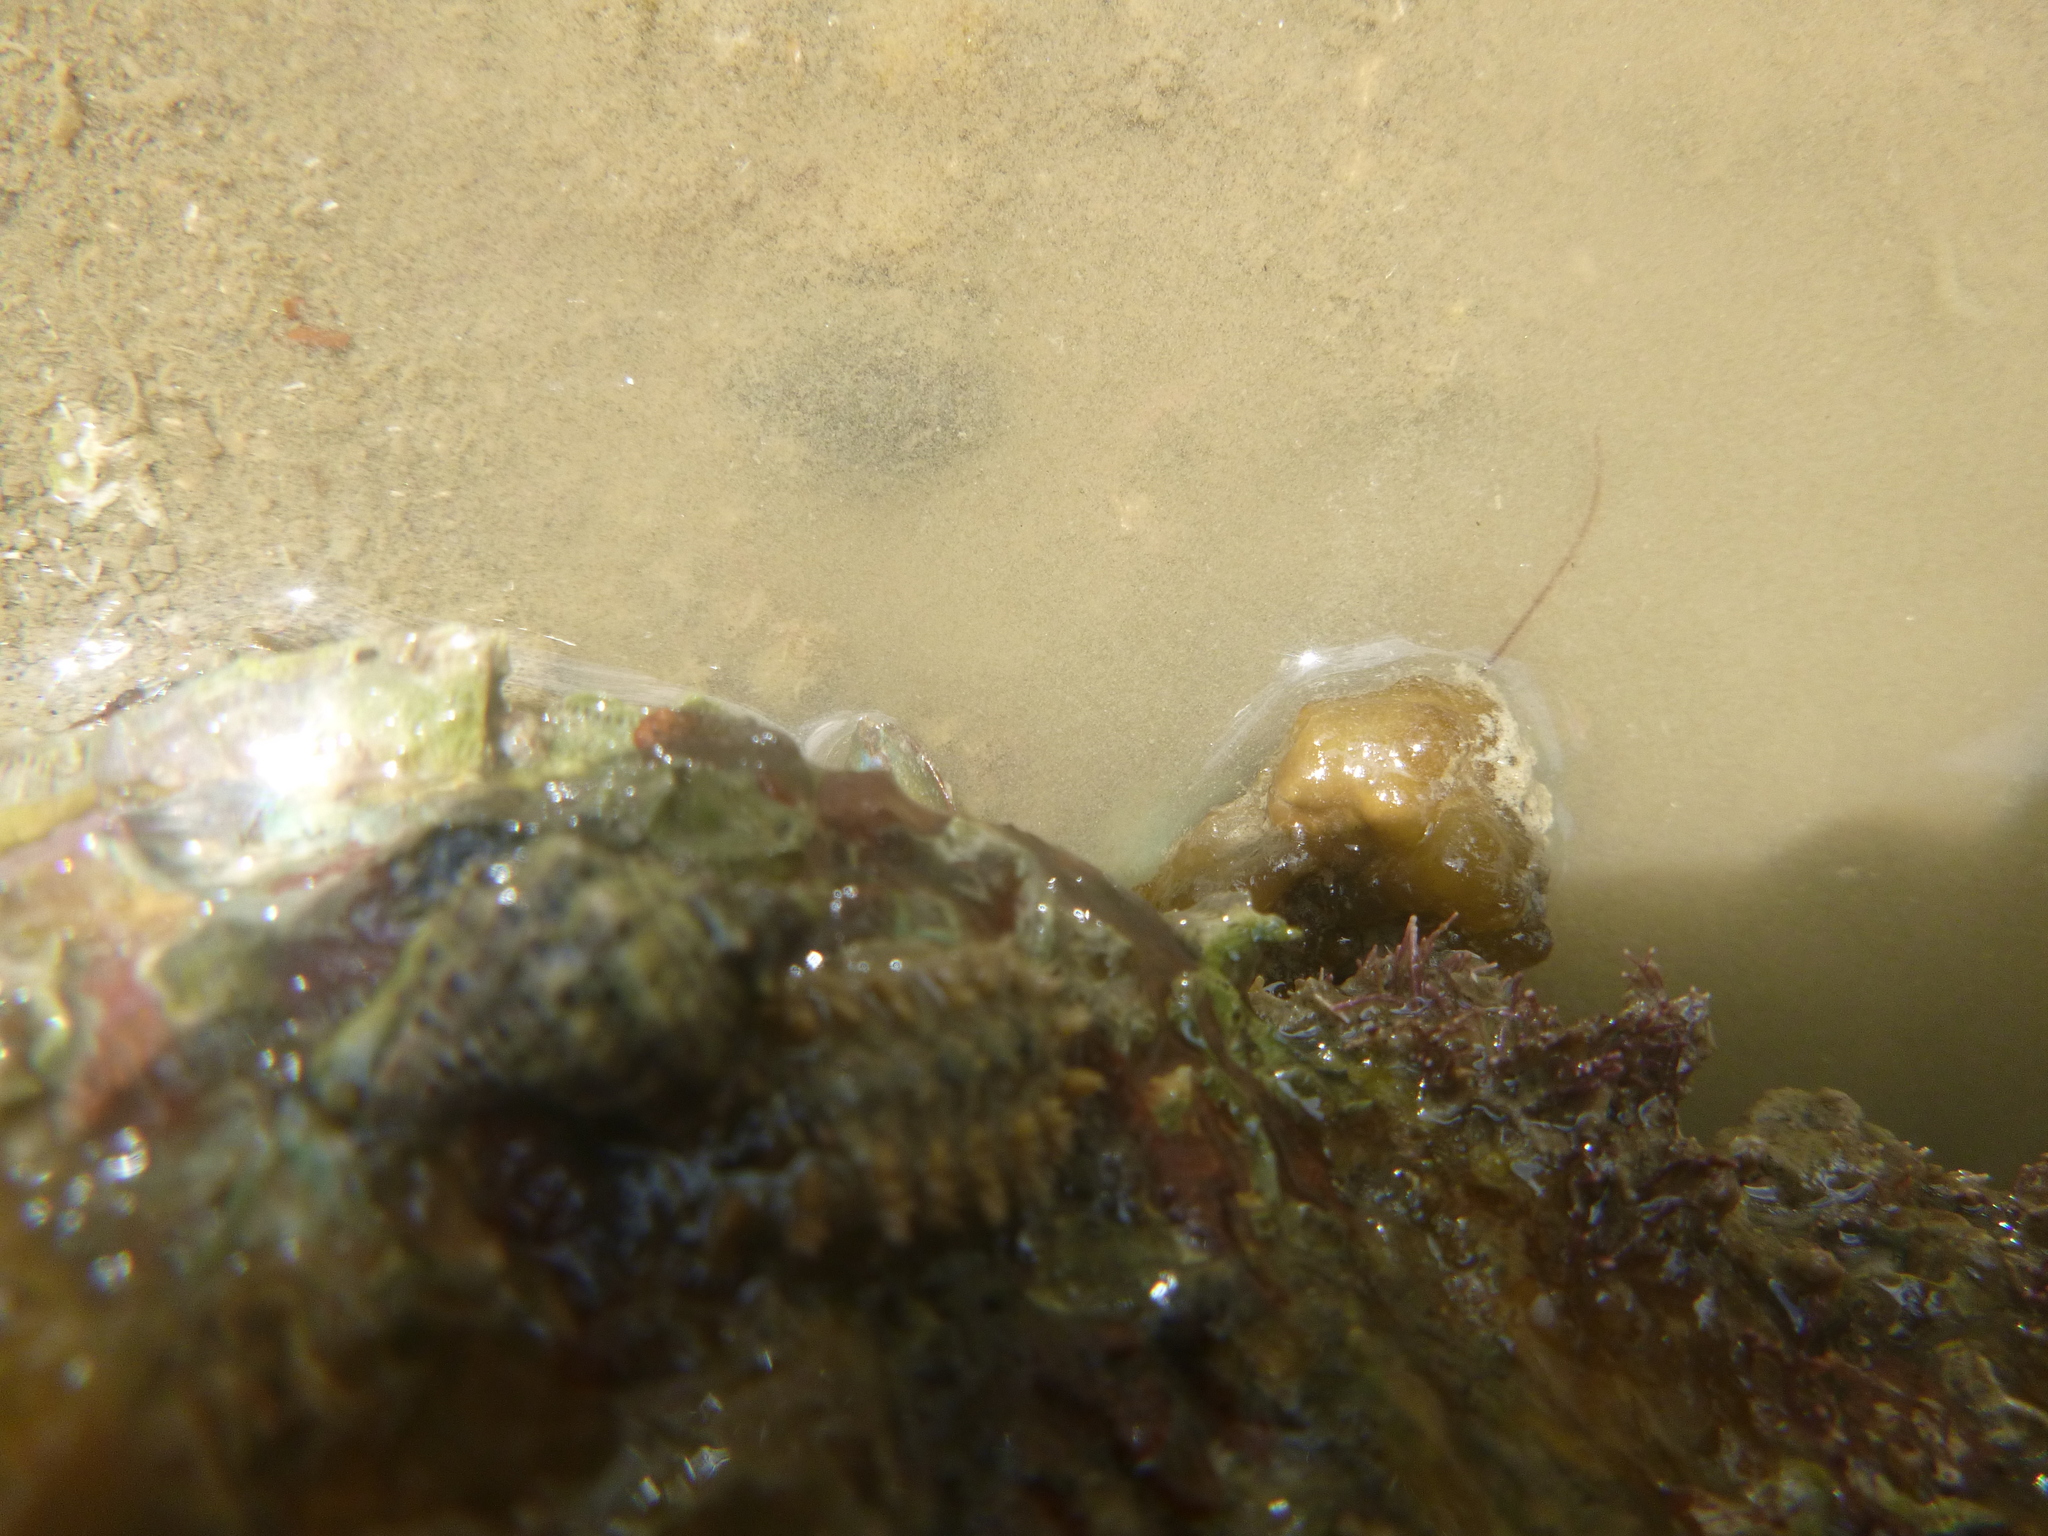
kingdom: Animalia
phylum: Mollusca
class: Gastropoda
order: Neogastropoda
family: Muricidae
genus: Haustrum
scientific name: Haustrum scobina
